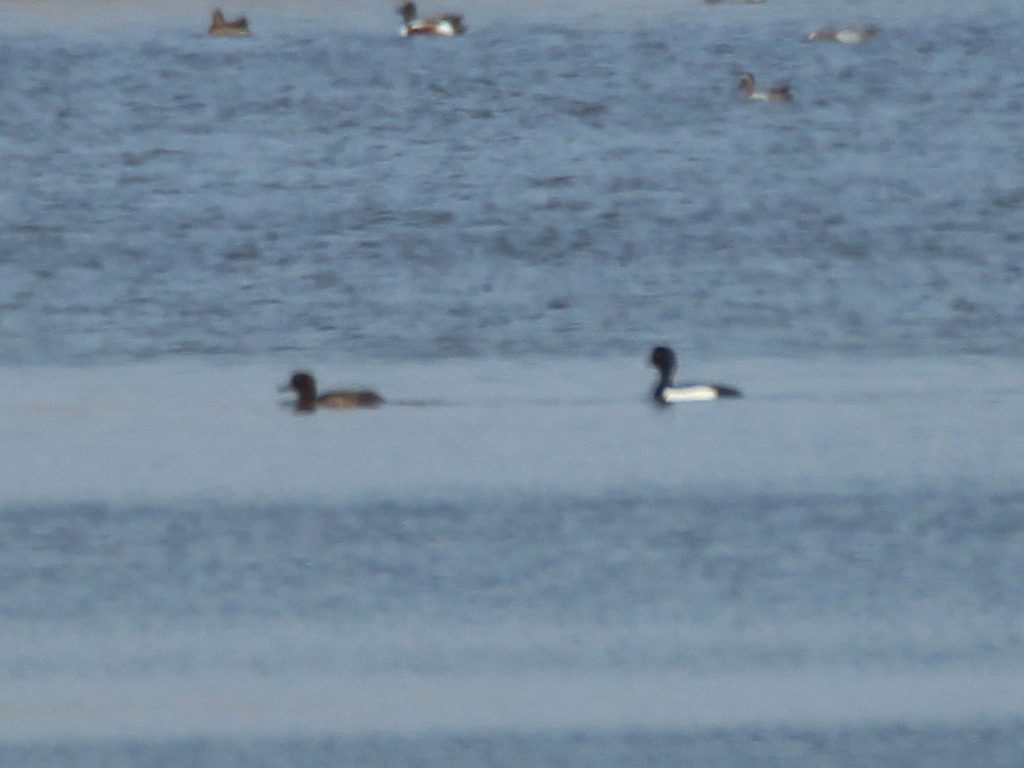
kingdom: Animalia
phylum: Chordata
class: Aves
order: Anseriformes
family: Anatidae
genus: Aythya
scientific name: Aythya fuligula
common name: Tufted duck
